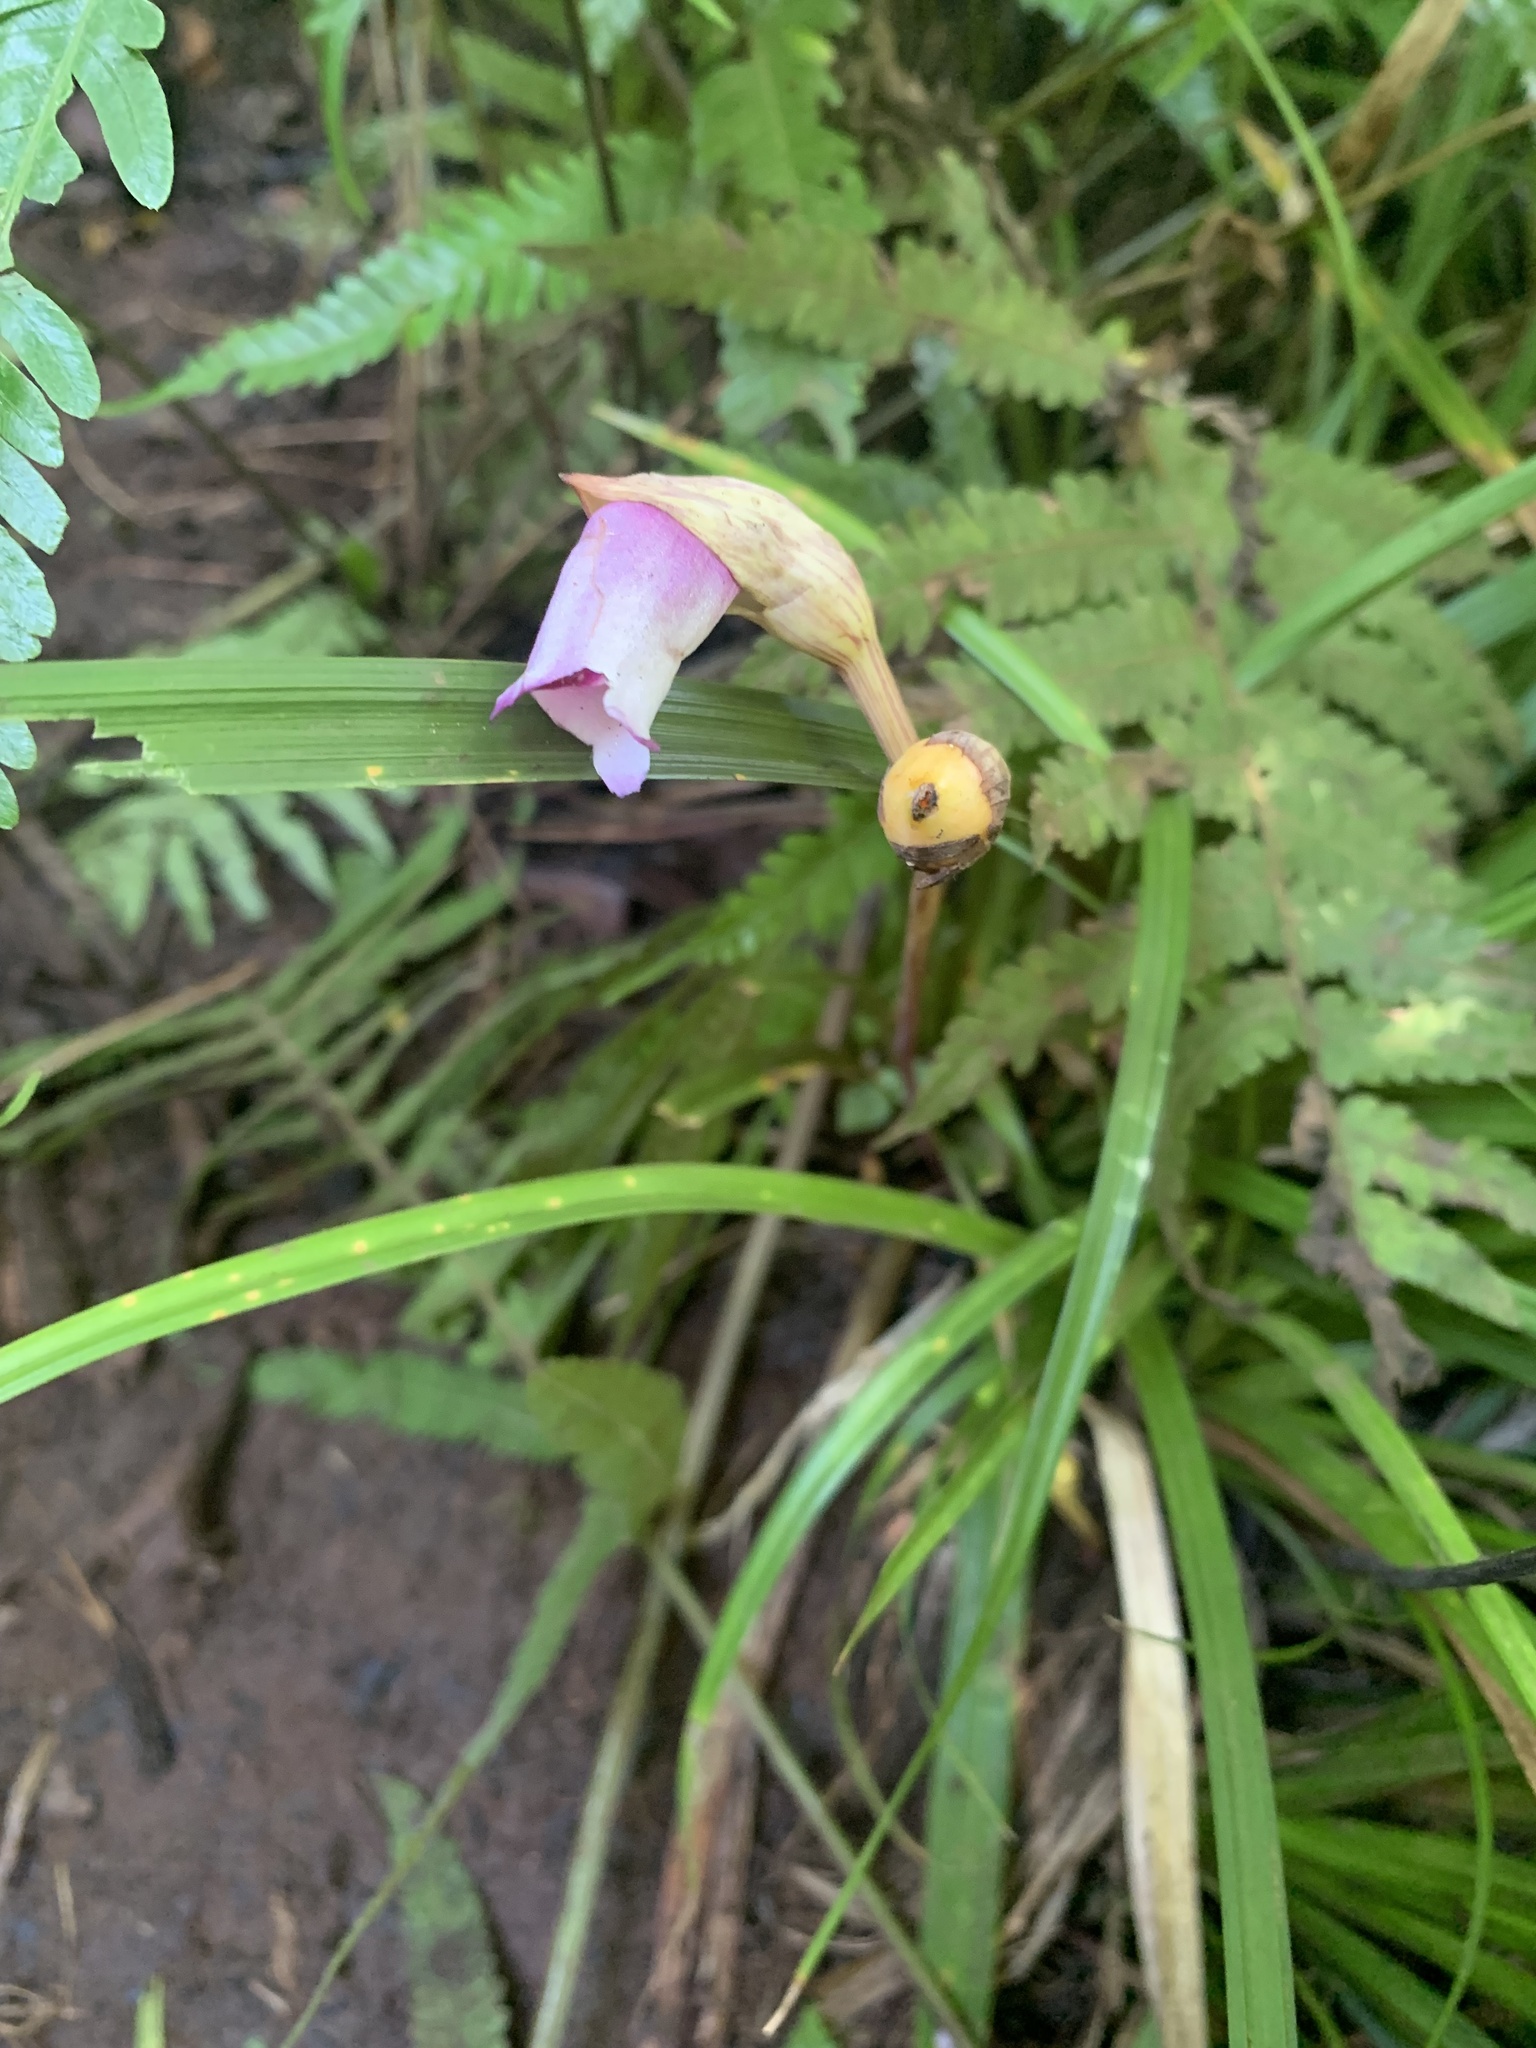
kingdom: Plantae
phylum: Tracheophyta
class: Magnoliopsida
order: Lamiales
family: Orobanchaceae
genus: Aeginetia
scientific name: Aeginetia indica
